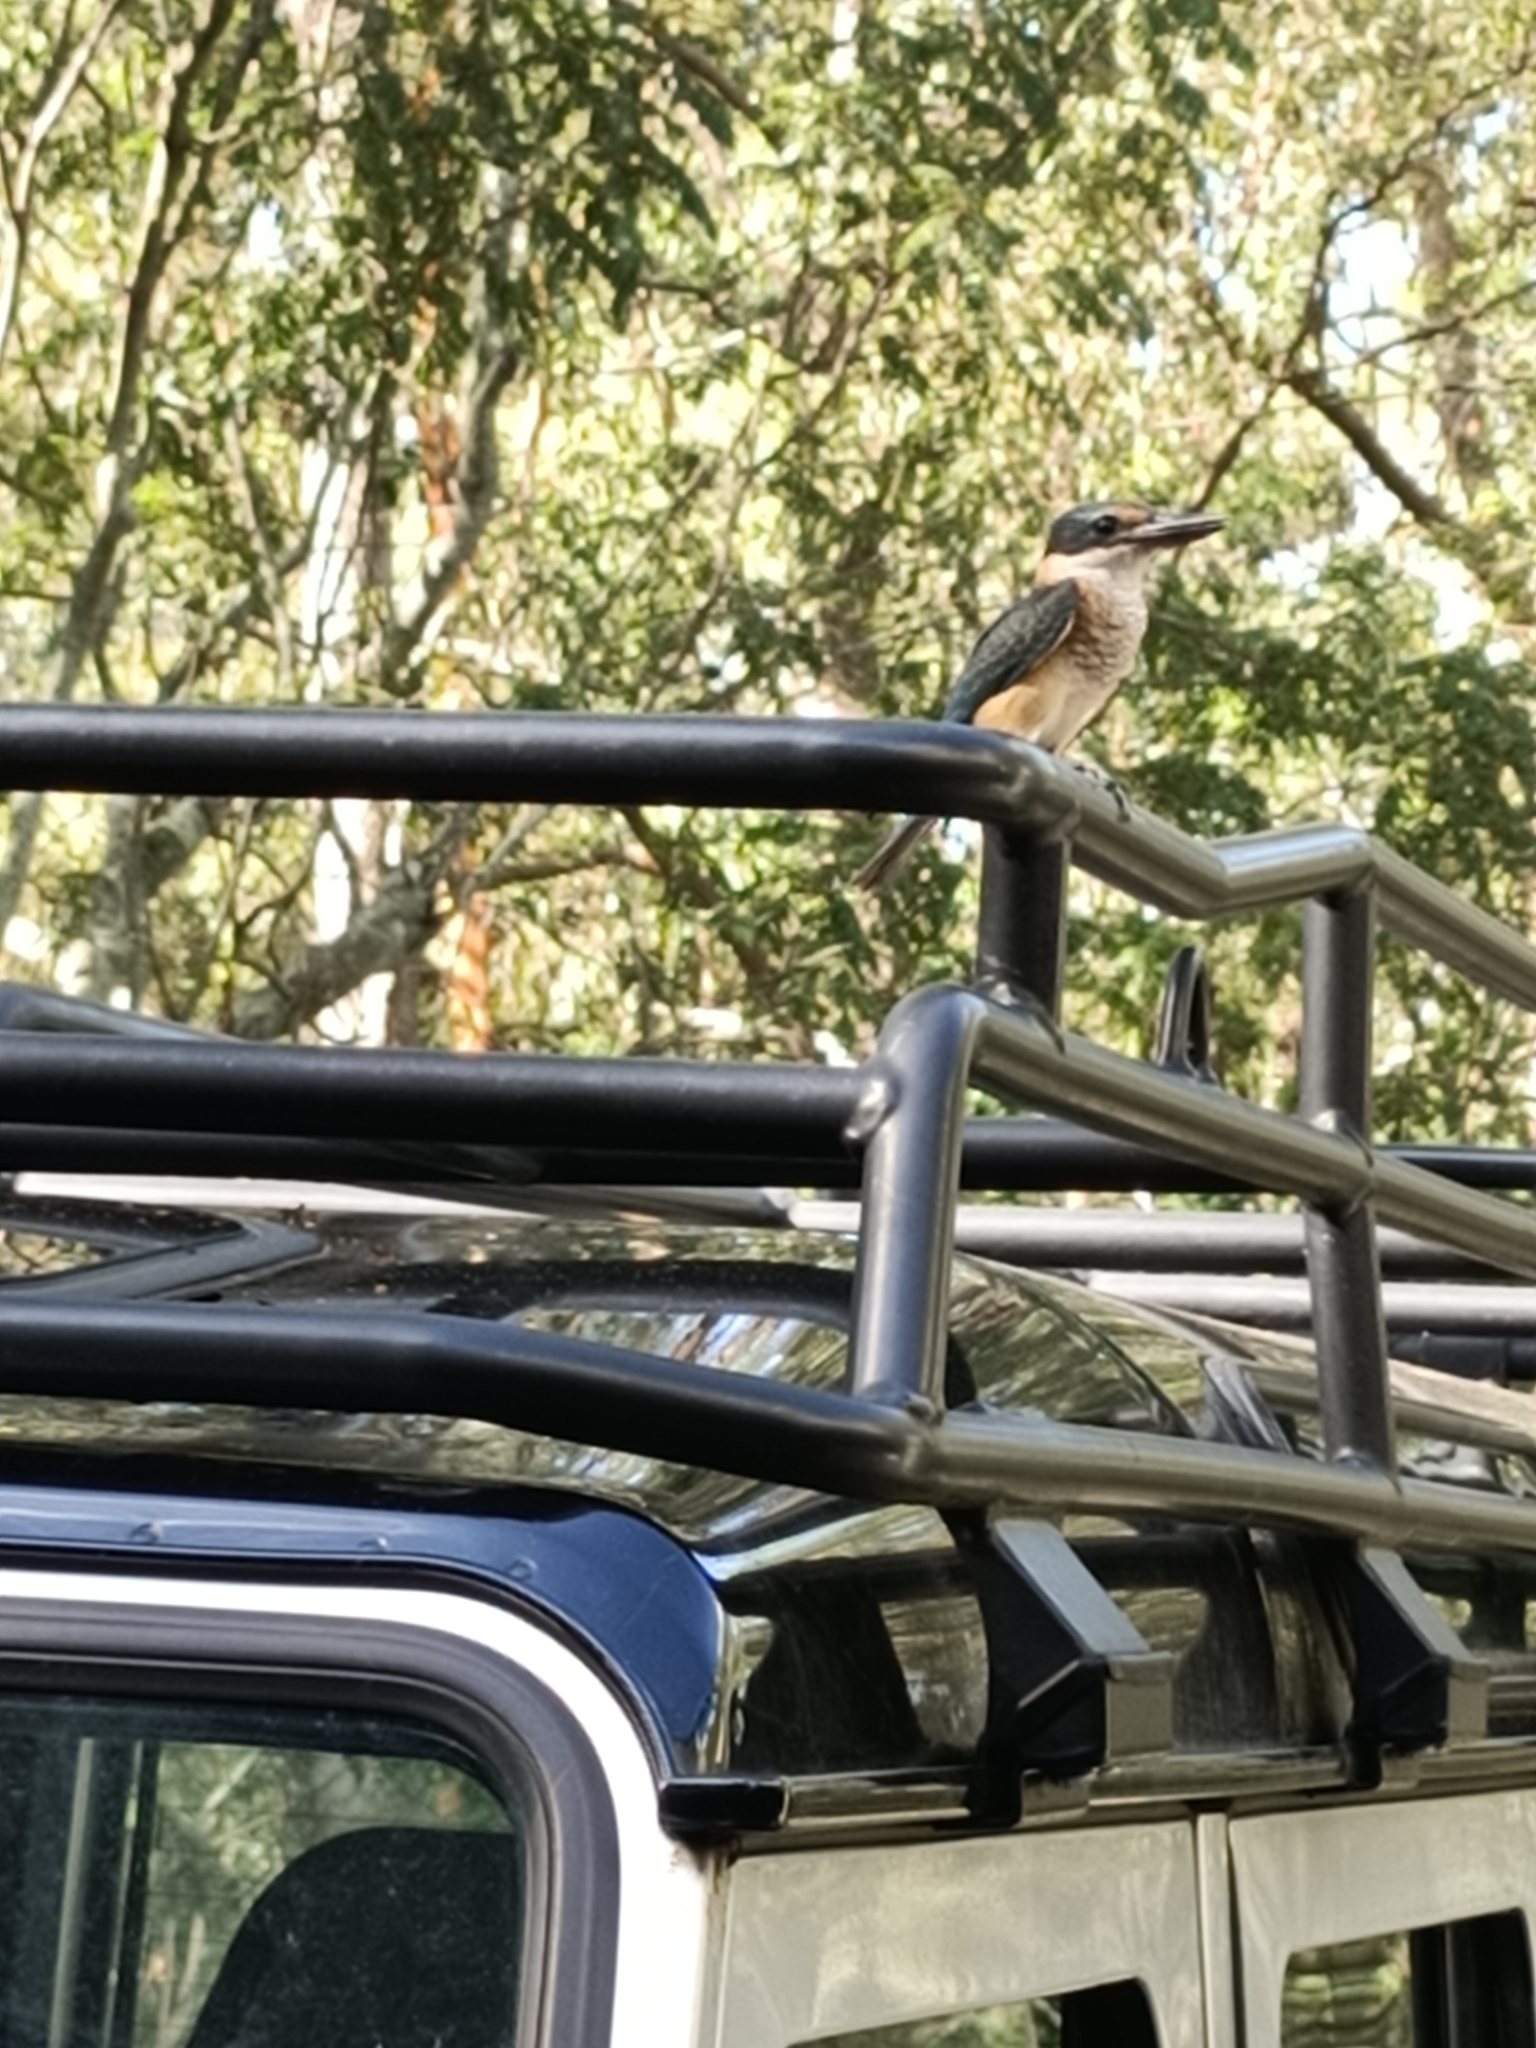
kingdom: Animalia
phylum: Chordata
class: Aves
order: Coraciiformes
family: Alcedinidae
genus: Todiramphus
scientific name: Todiramphus sanctus
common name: Sacred kingfisher
